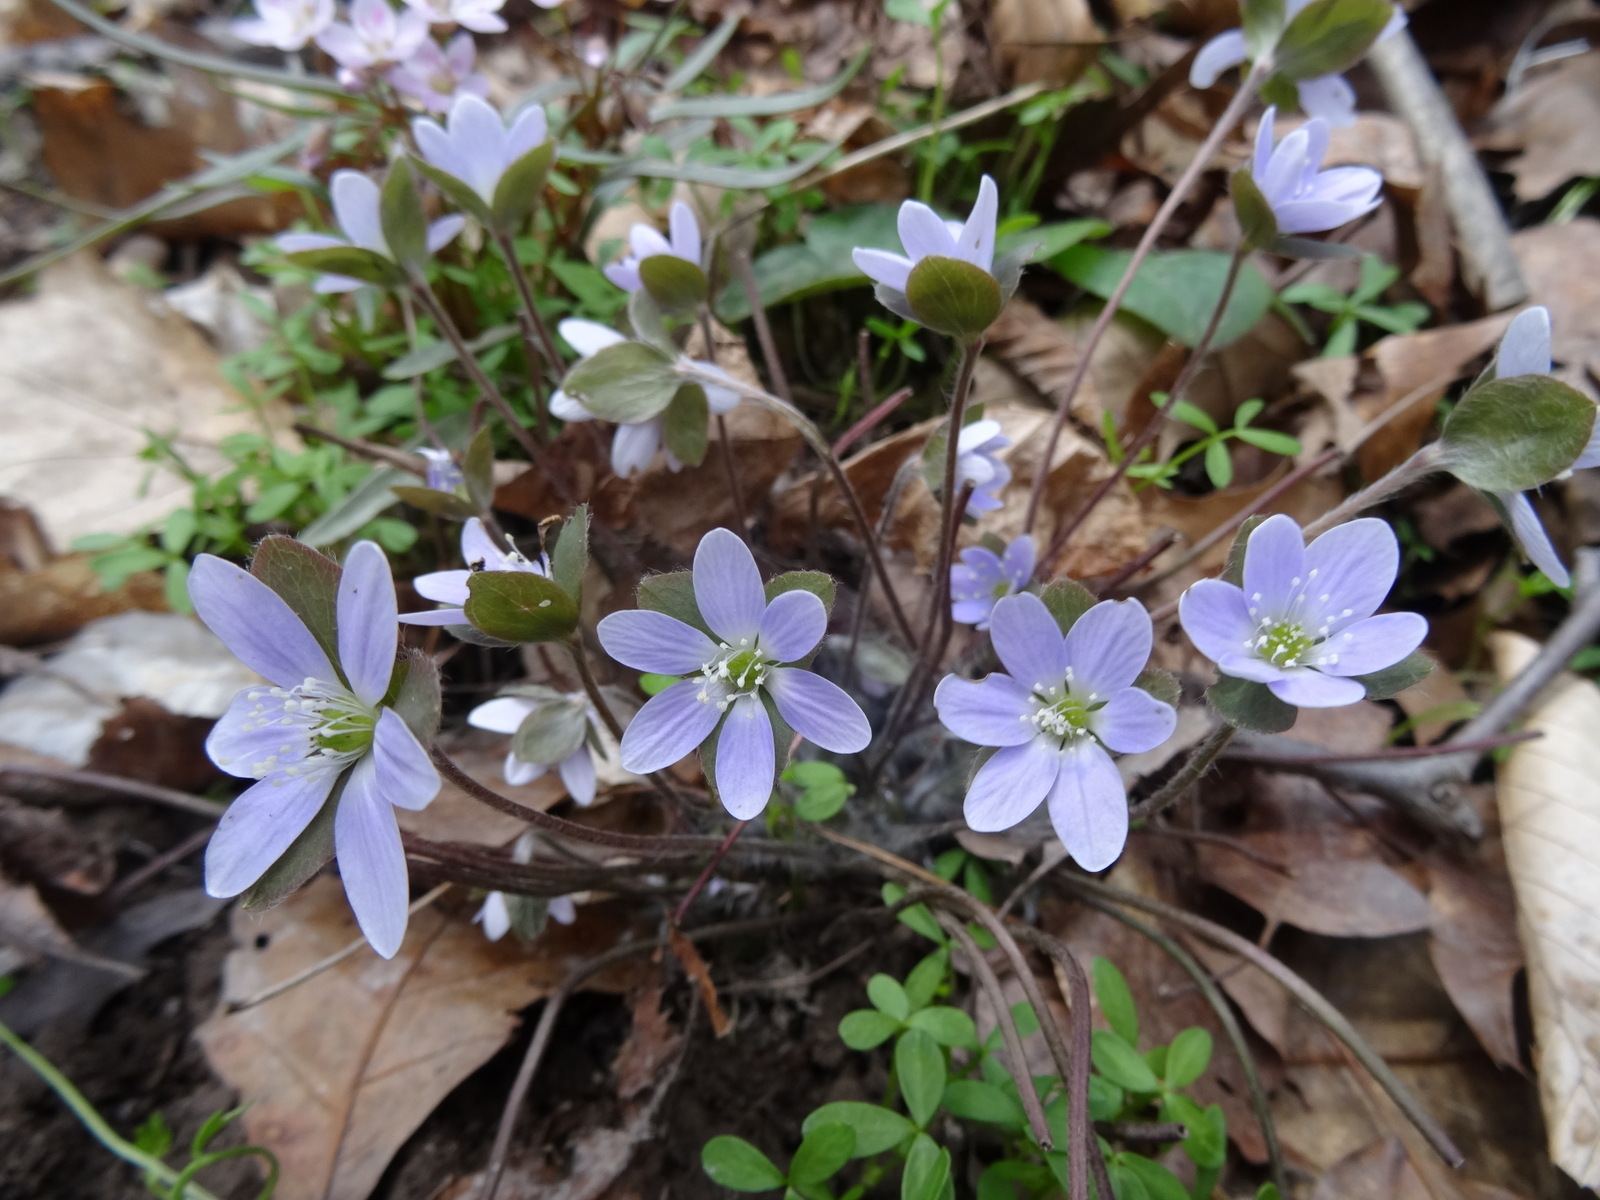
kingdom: Plantae
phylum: Tracheophyta
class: Magnoliopsida
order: Ranunculales
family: Ranunculaceae
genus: Hepatica
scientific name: Hepatica americana
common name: American hepatica
